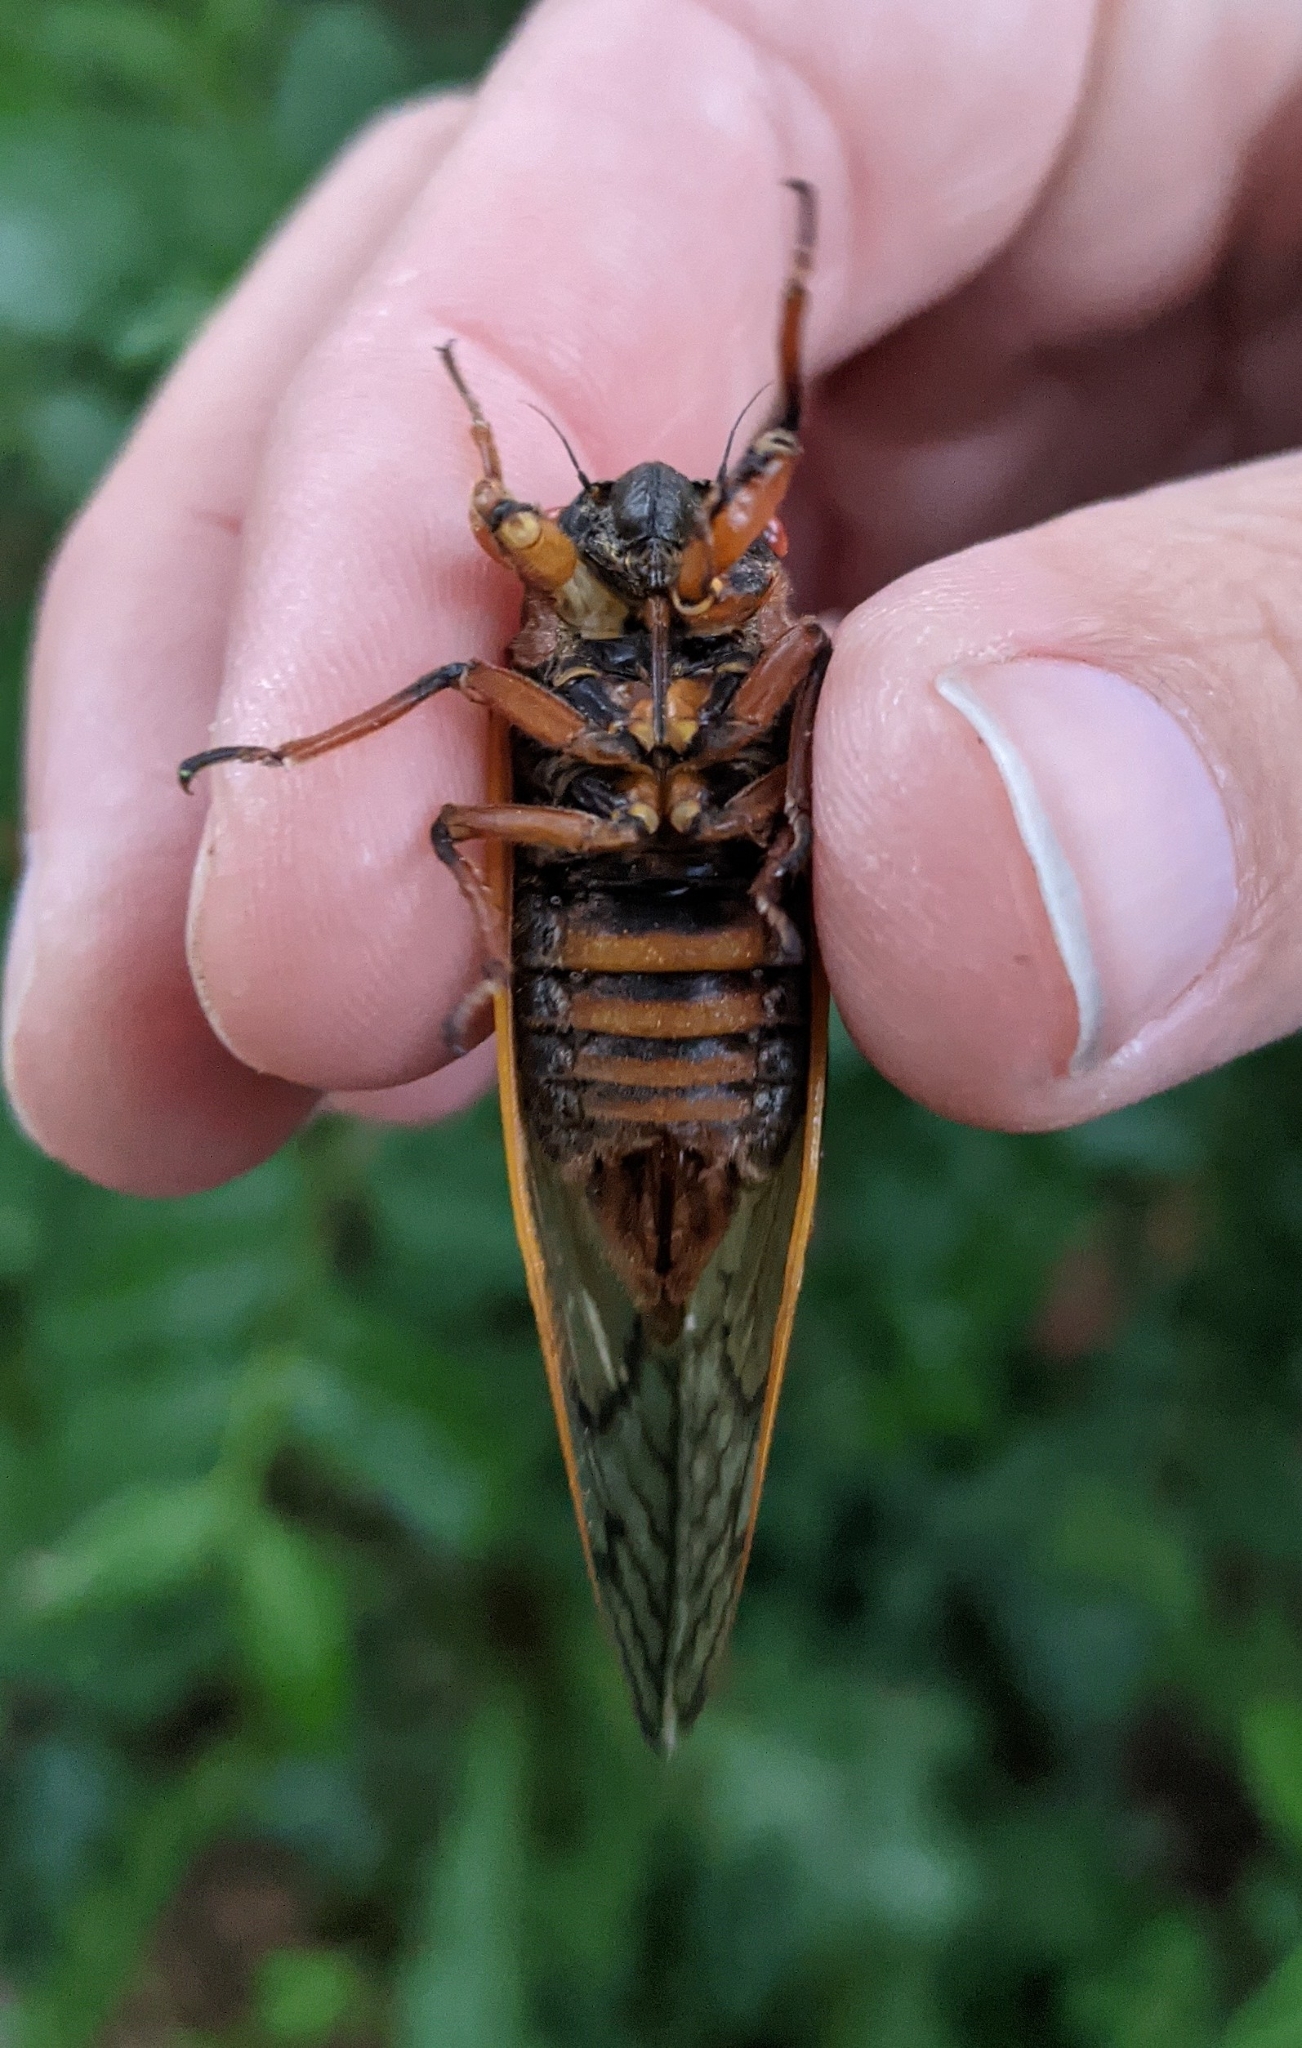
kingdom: Animalia
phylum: Arthropoda
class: Insecta
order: Hemiptera
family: Cicadidae
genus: Magicicada
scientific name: Magicicada septendecim
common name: Periodical cicada
